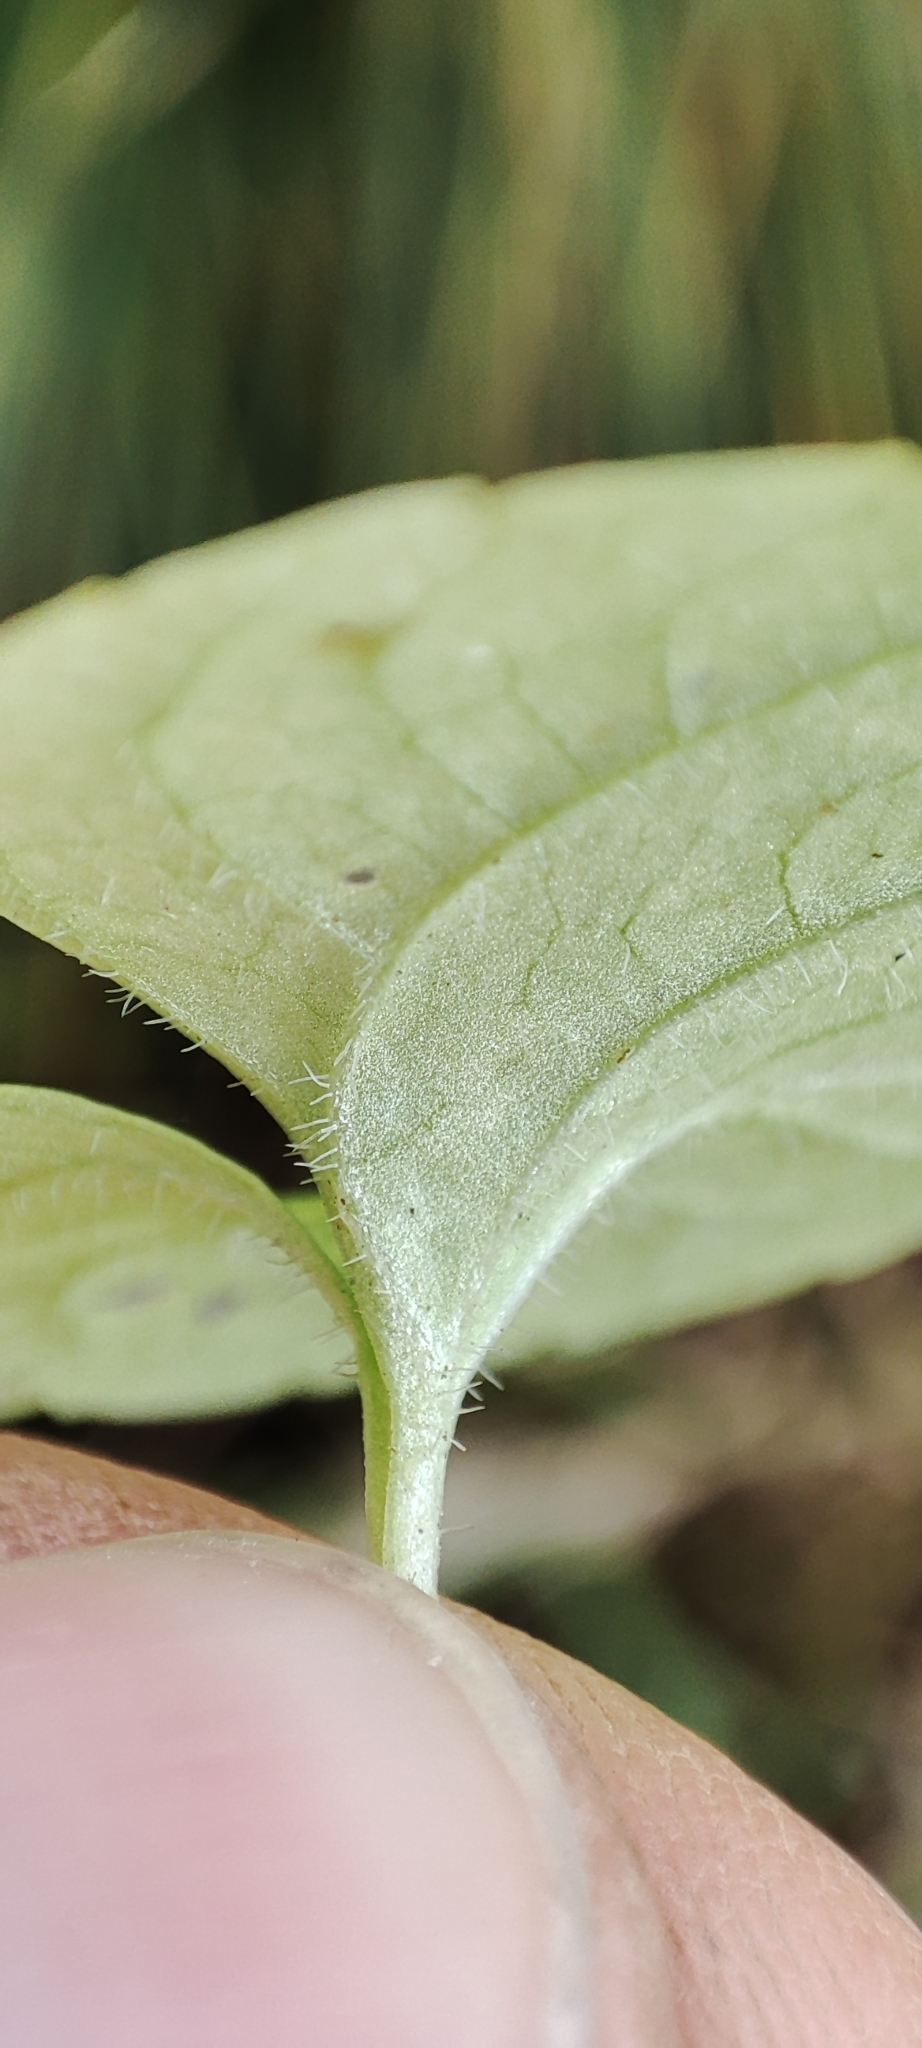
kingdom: Plantae
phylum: Tracheophyta
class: Magnoliopsida
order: Malpighiales
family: Violaceae
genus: Viola
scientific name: Viola epipsila
